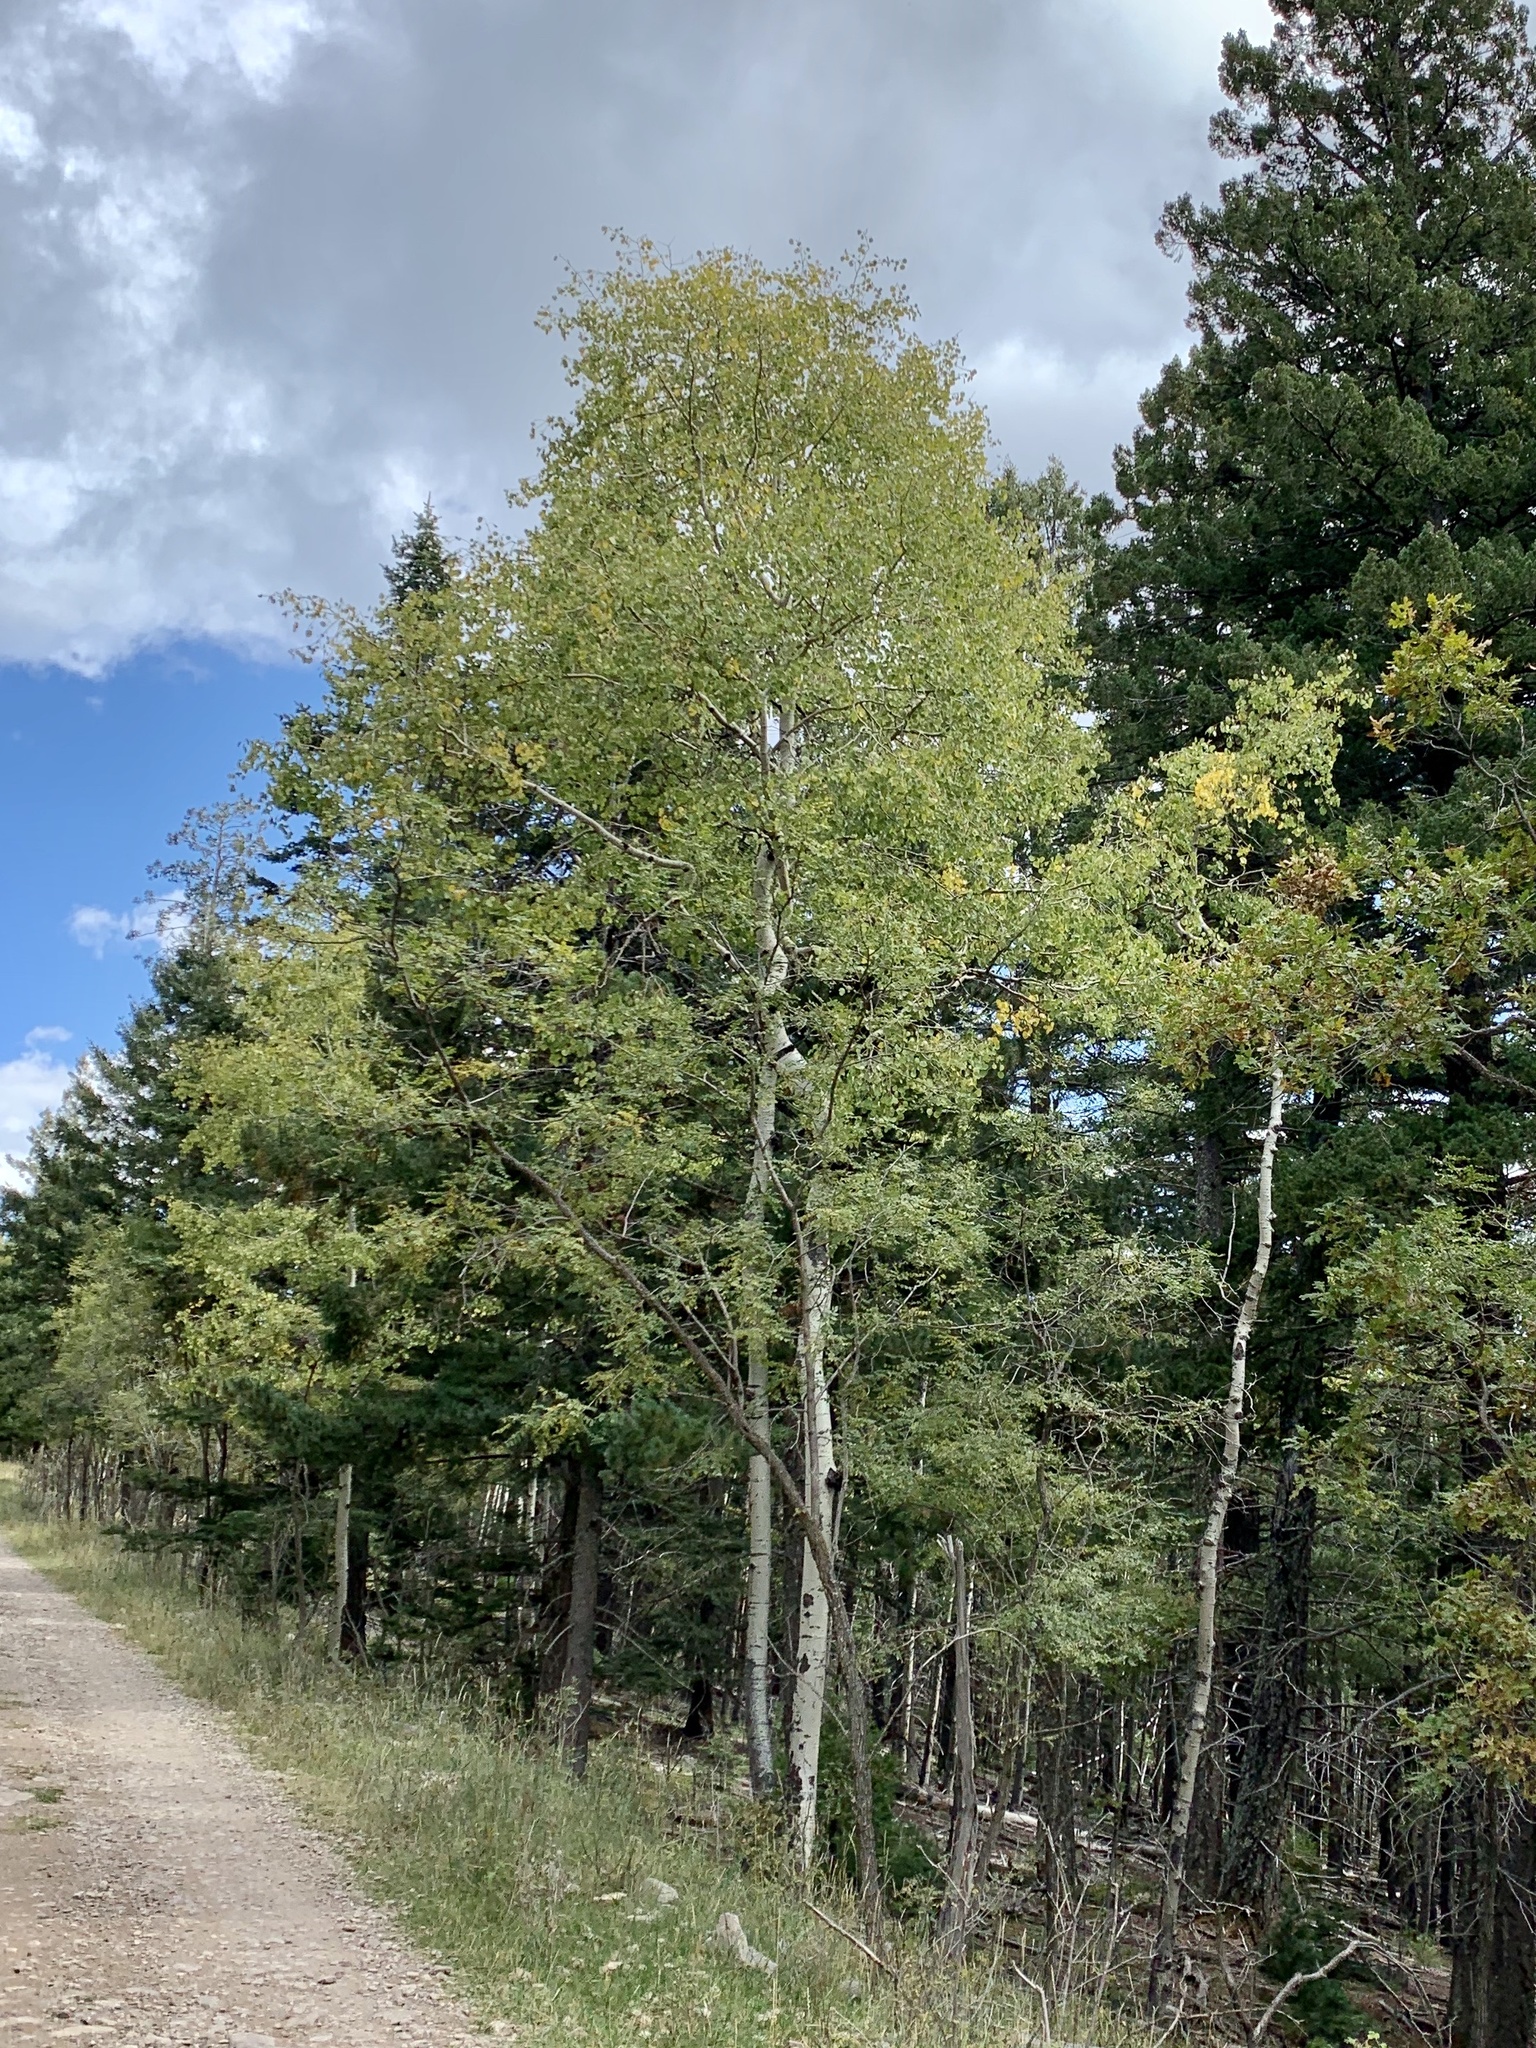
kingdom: Plantae
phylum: Tracheophyta
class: Magnoliopsida
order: Malpighiales
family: Salicaceae
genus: Populus
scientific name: Populus tremuloides
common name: Quaking aspen
